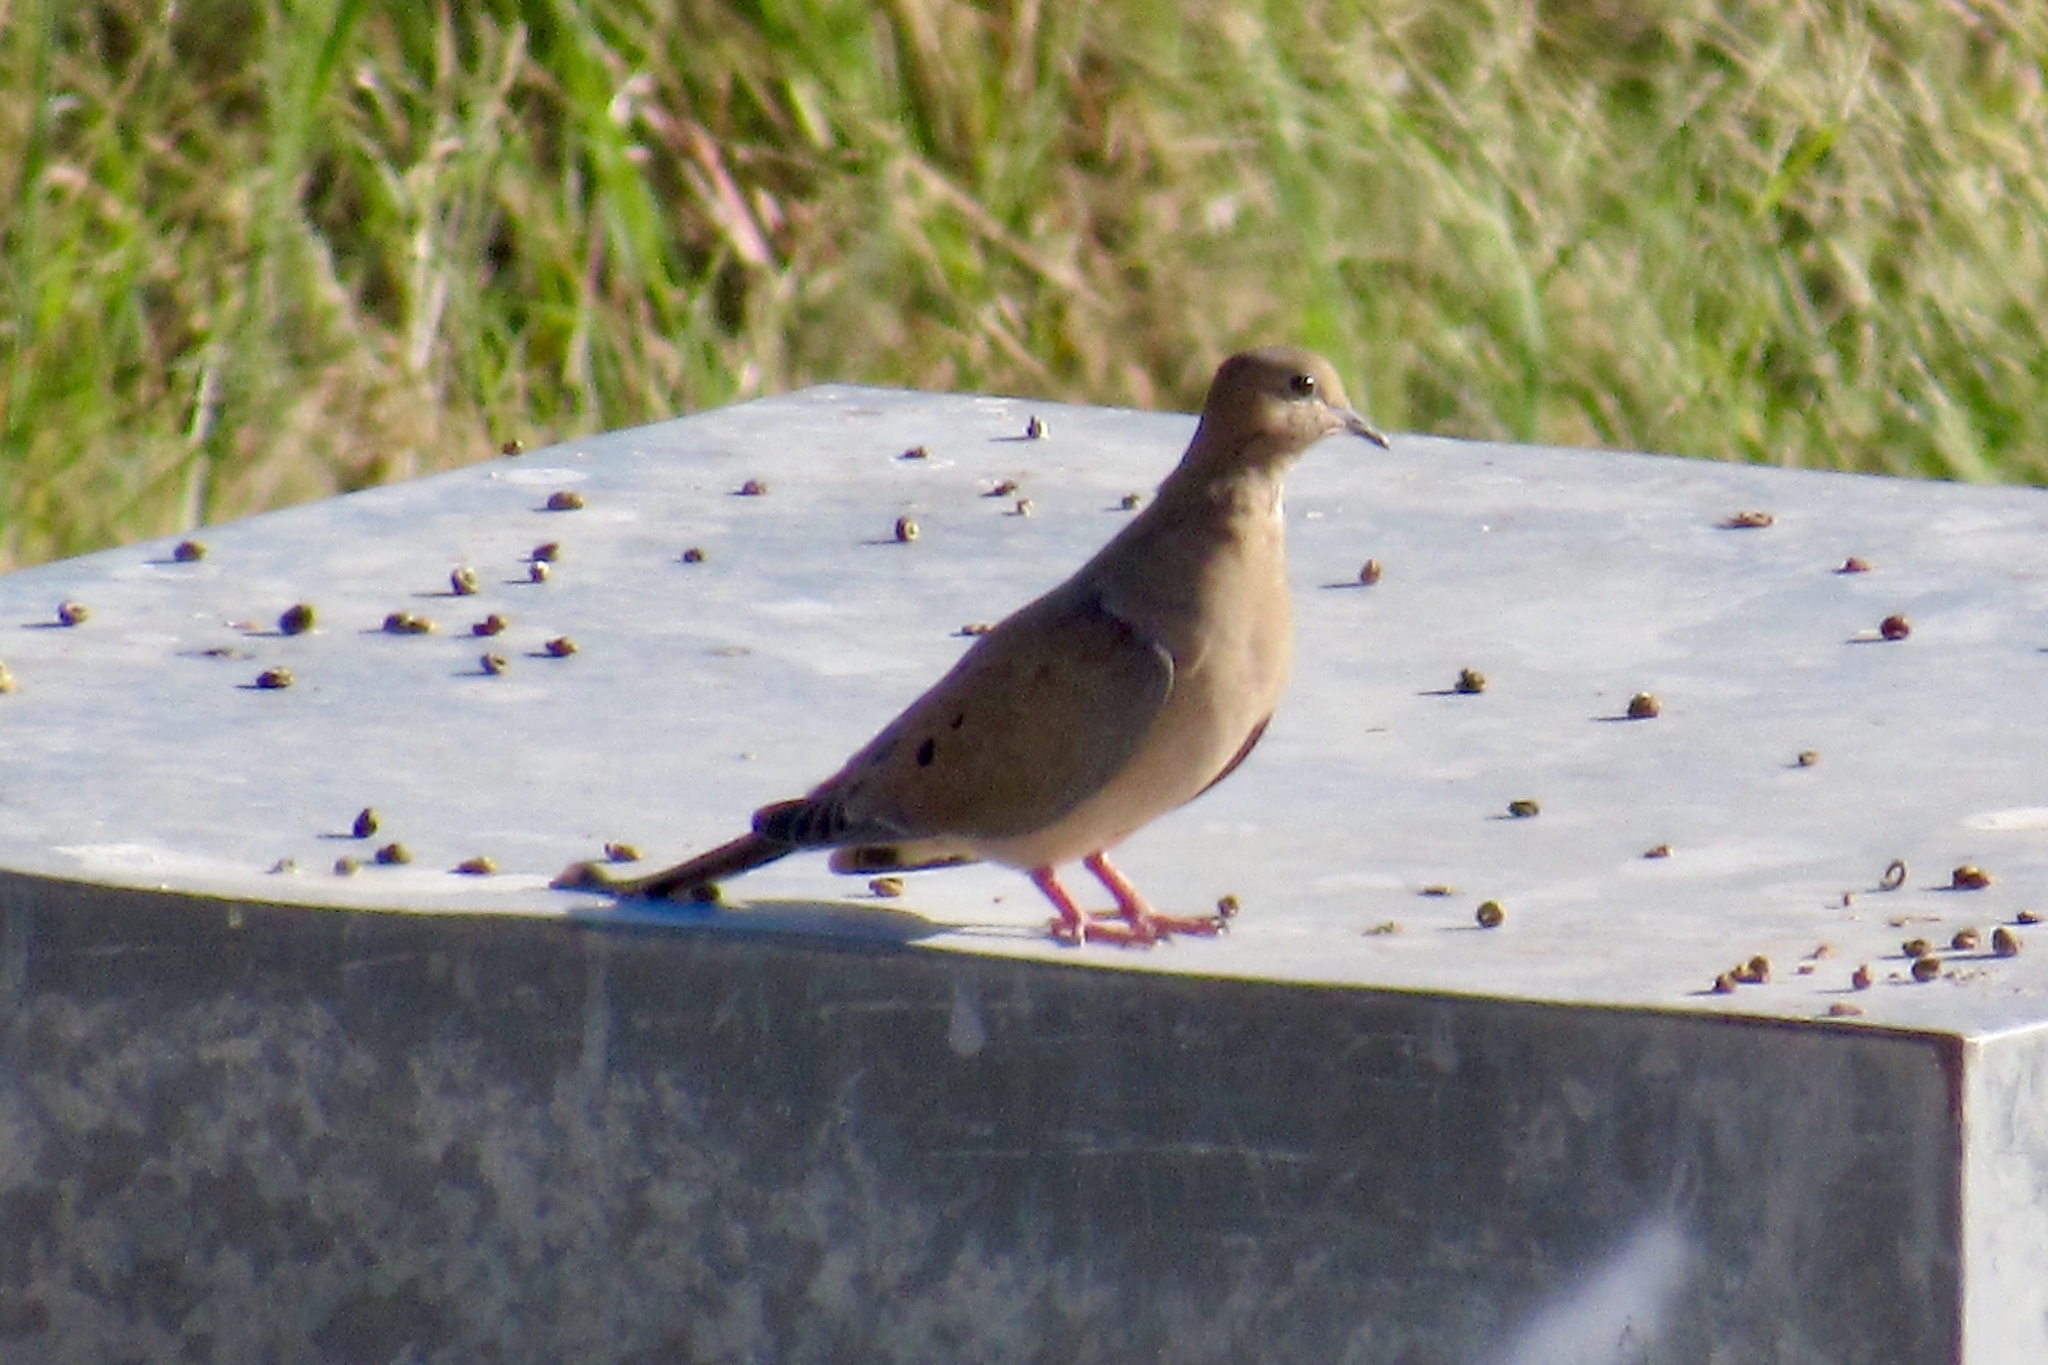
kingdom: Animalia
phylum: Chordata
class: Aves
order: Columbiformes
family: Columbidae
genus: Zenaida
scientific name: Zenaida macroura
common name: Mourning dove
